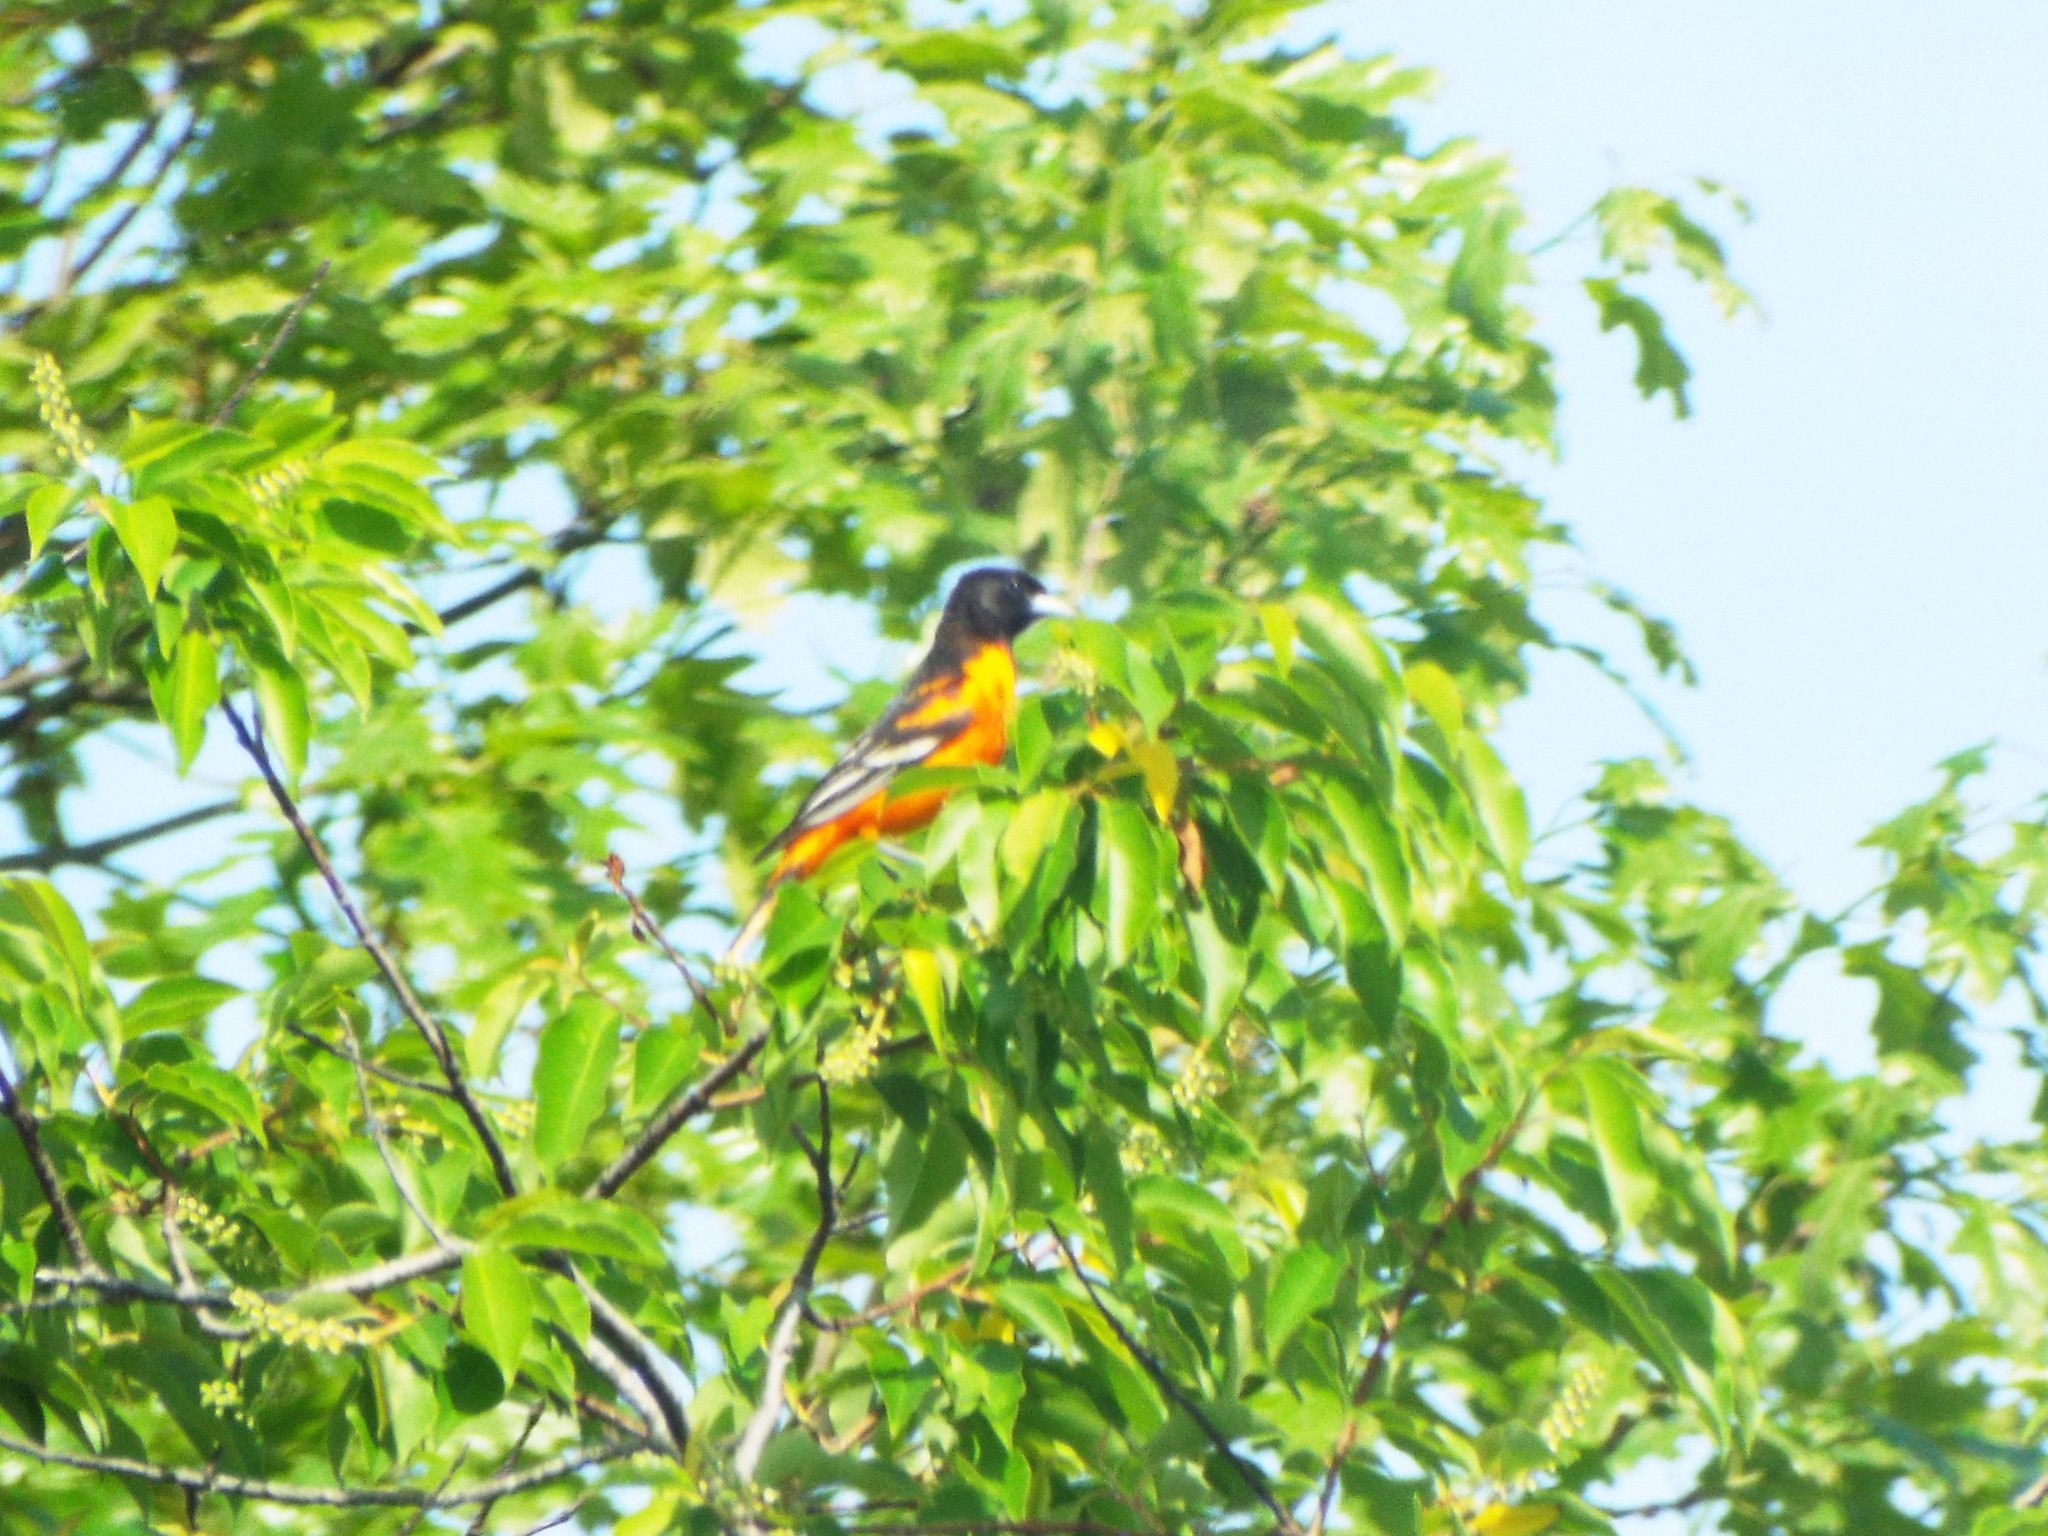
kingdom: Animalia
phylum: Chordata
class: Aves
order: Passeriformes
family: Icteridae
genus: Icterus
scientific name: Icterus galbula
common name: Baltimore oriole
